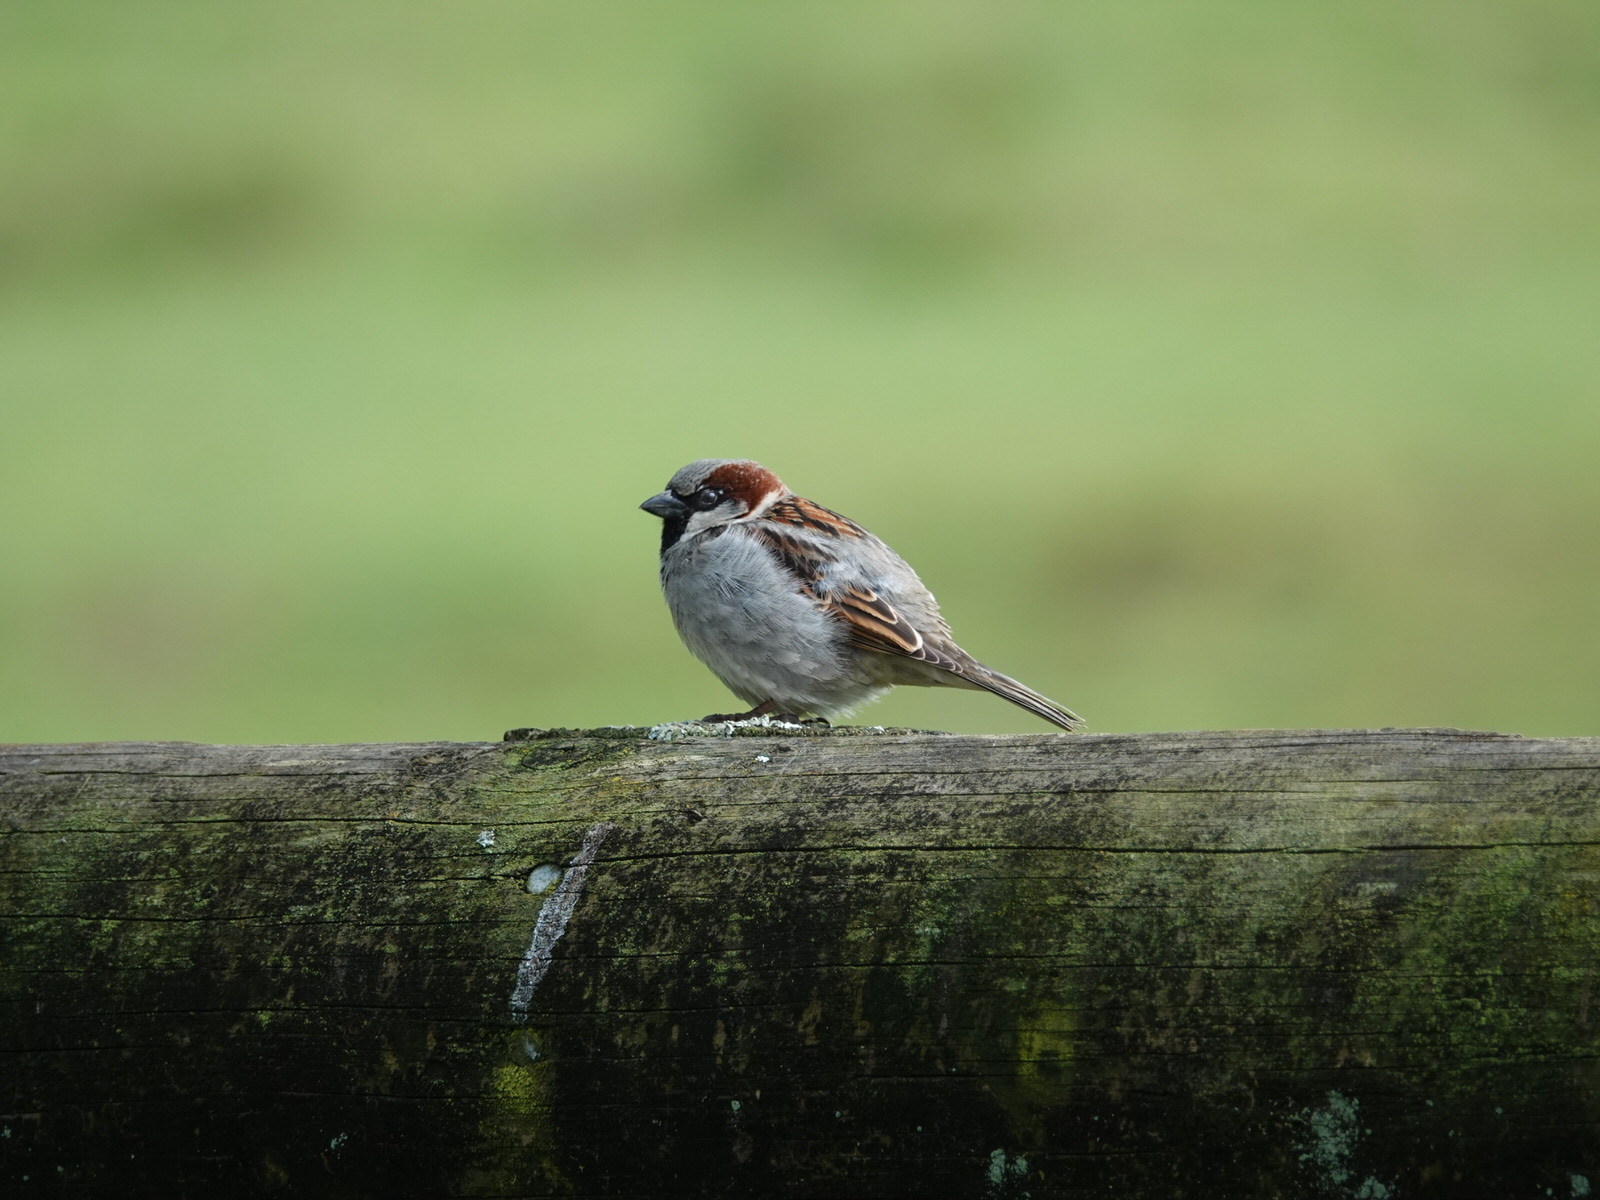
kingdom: Animalia
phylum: Chordata
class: Aves
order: Passeriformes
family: Passeridae
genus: Passer
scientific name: Passer domesticus
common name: House sparrow
